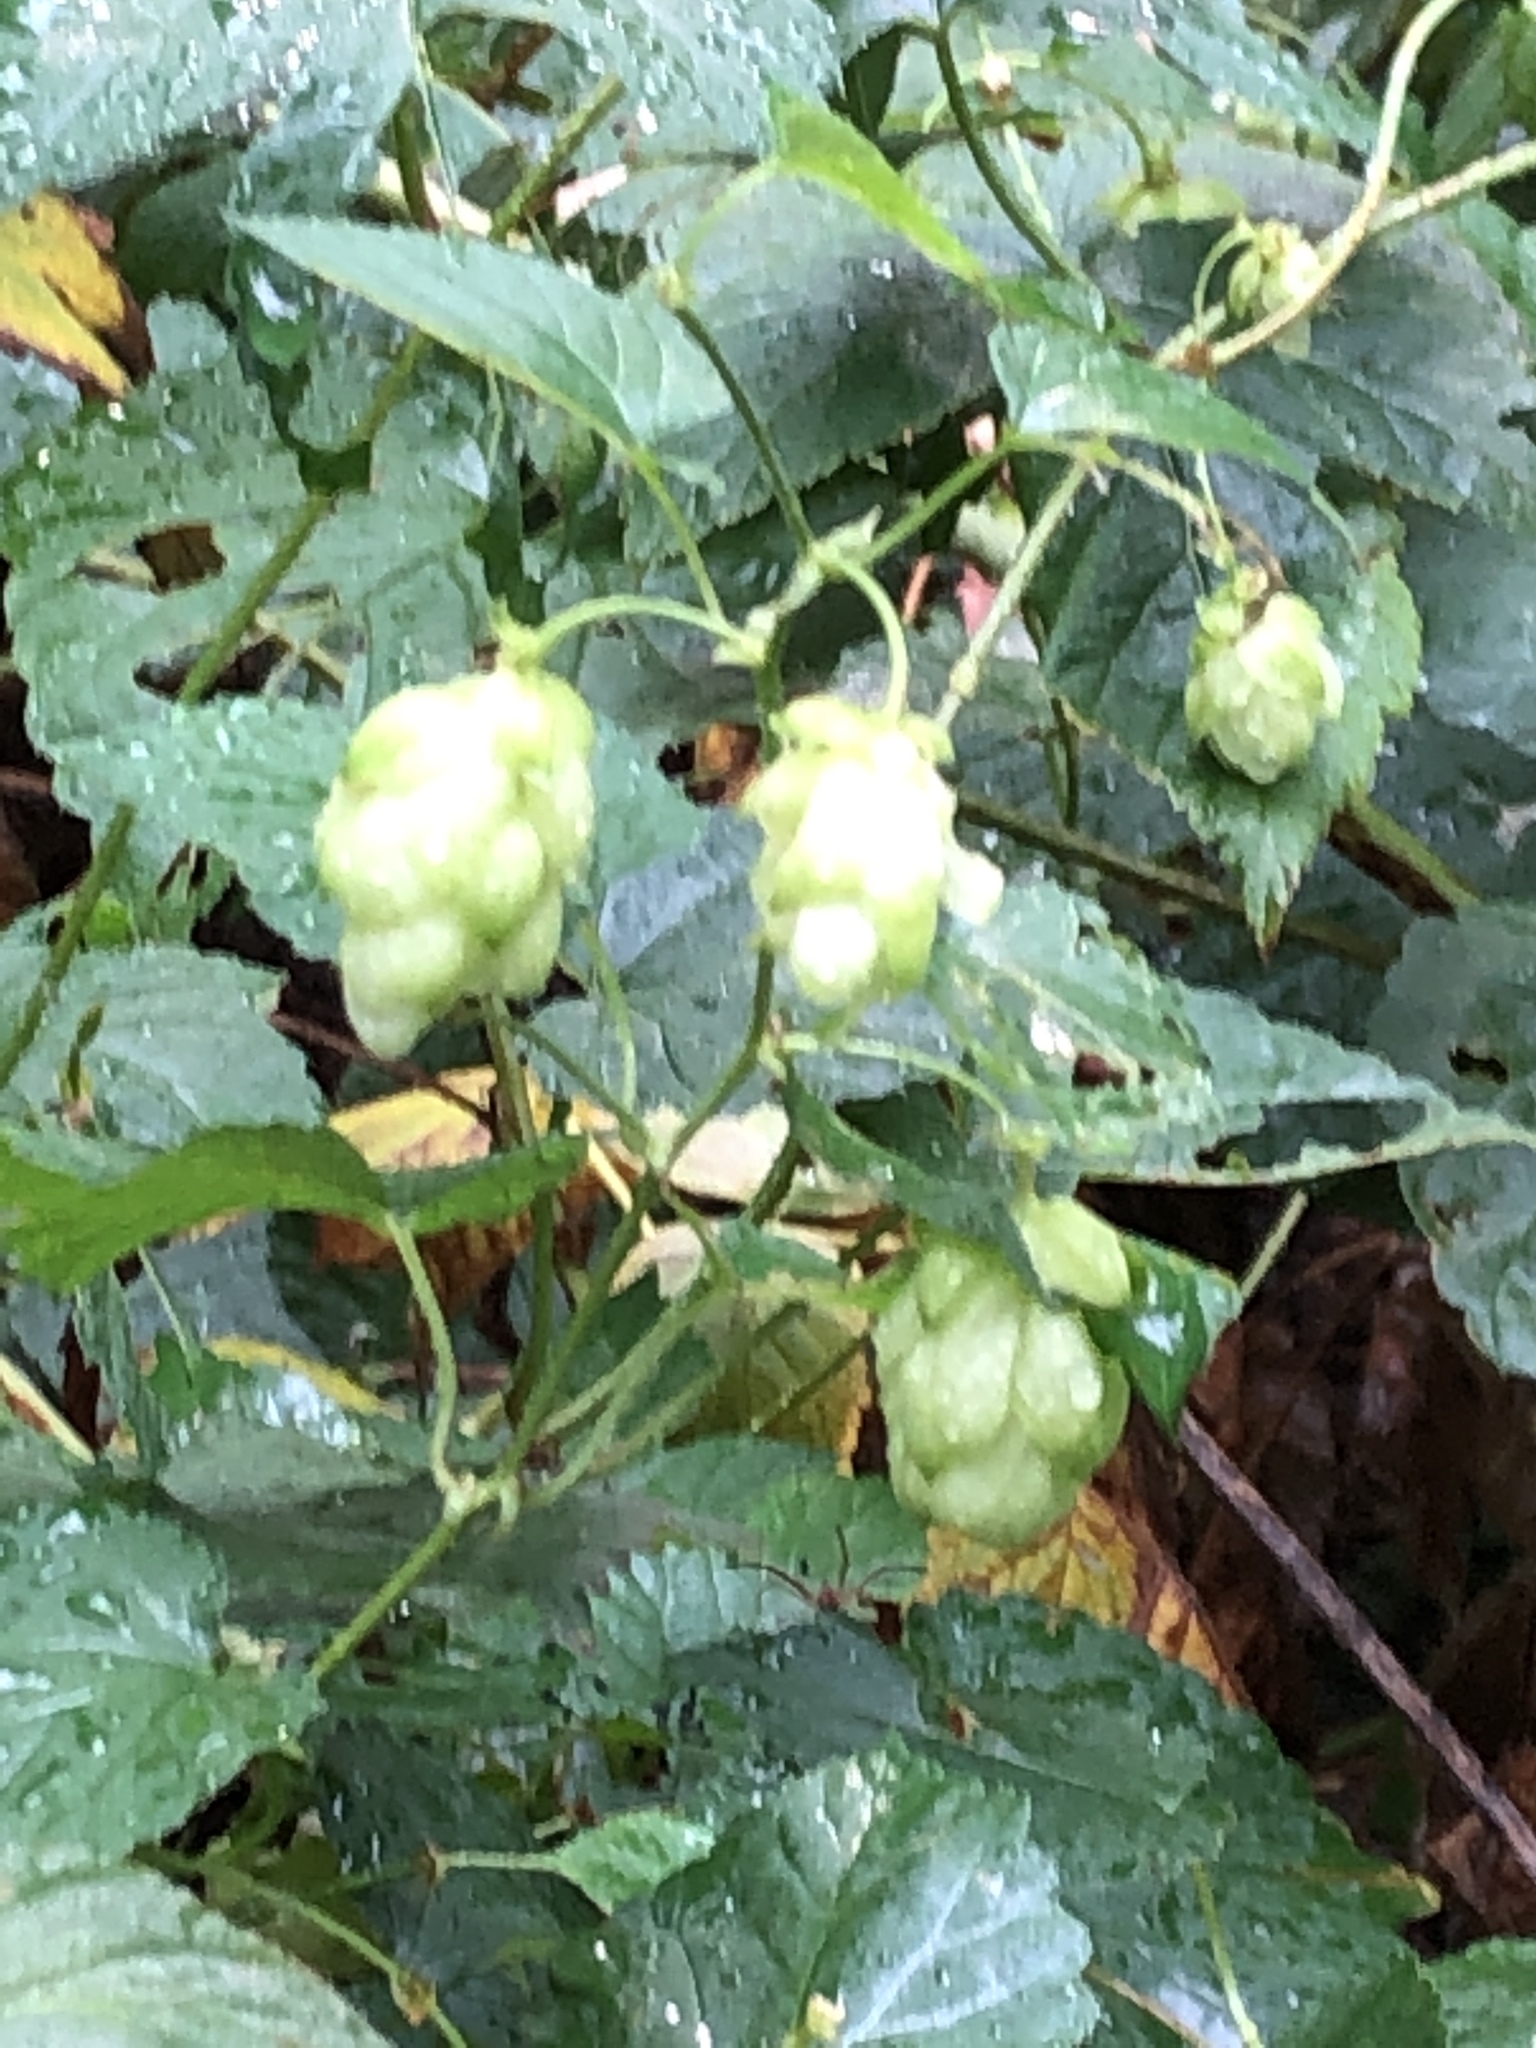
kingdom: Plantae
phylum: Tracheophyta
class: Magnoliopsida
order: Rosales
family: Cannabaceae
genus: Humulus
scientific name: Humulus lupulus
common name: Hop
